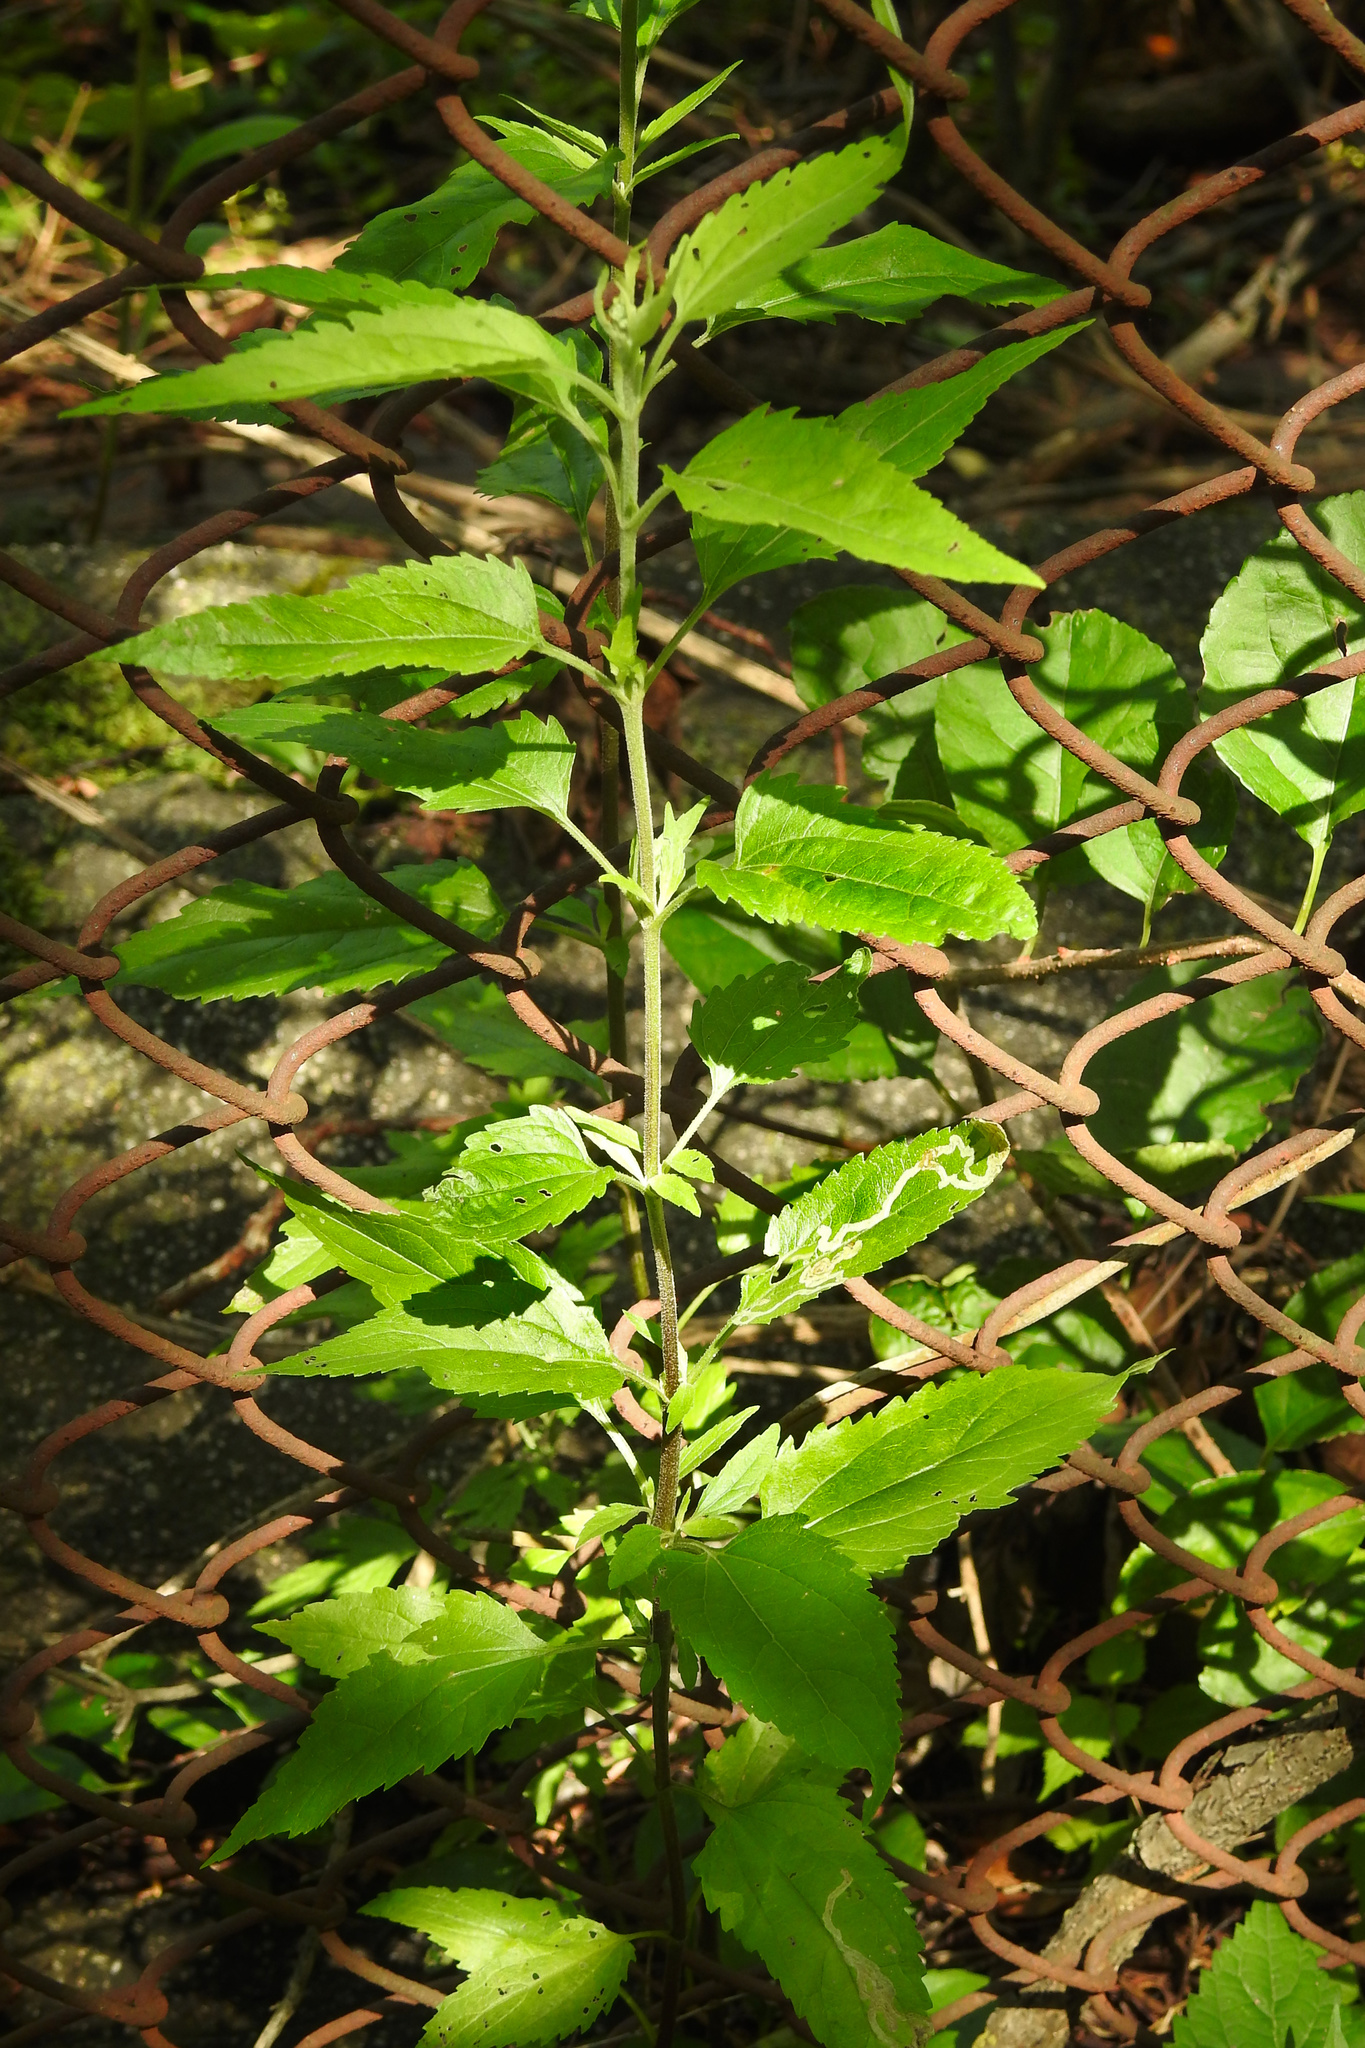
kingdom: Plantae
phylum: Tracheophyta
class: Magnoliopsida
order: Asterales
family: Asteraceae
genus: Eupatorium
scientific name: Eupatorium serotinum
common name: Late boneset
